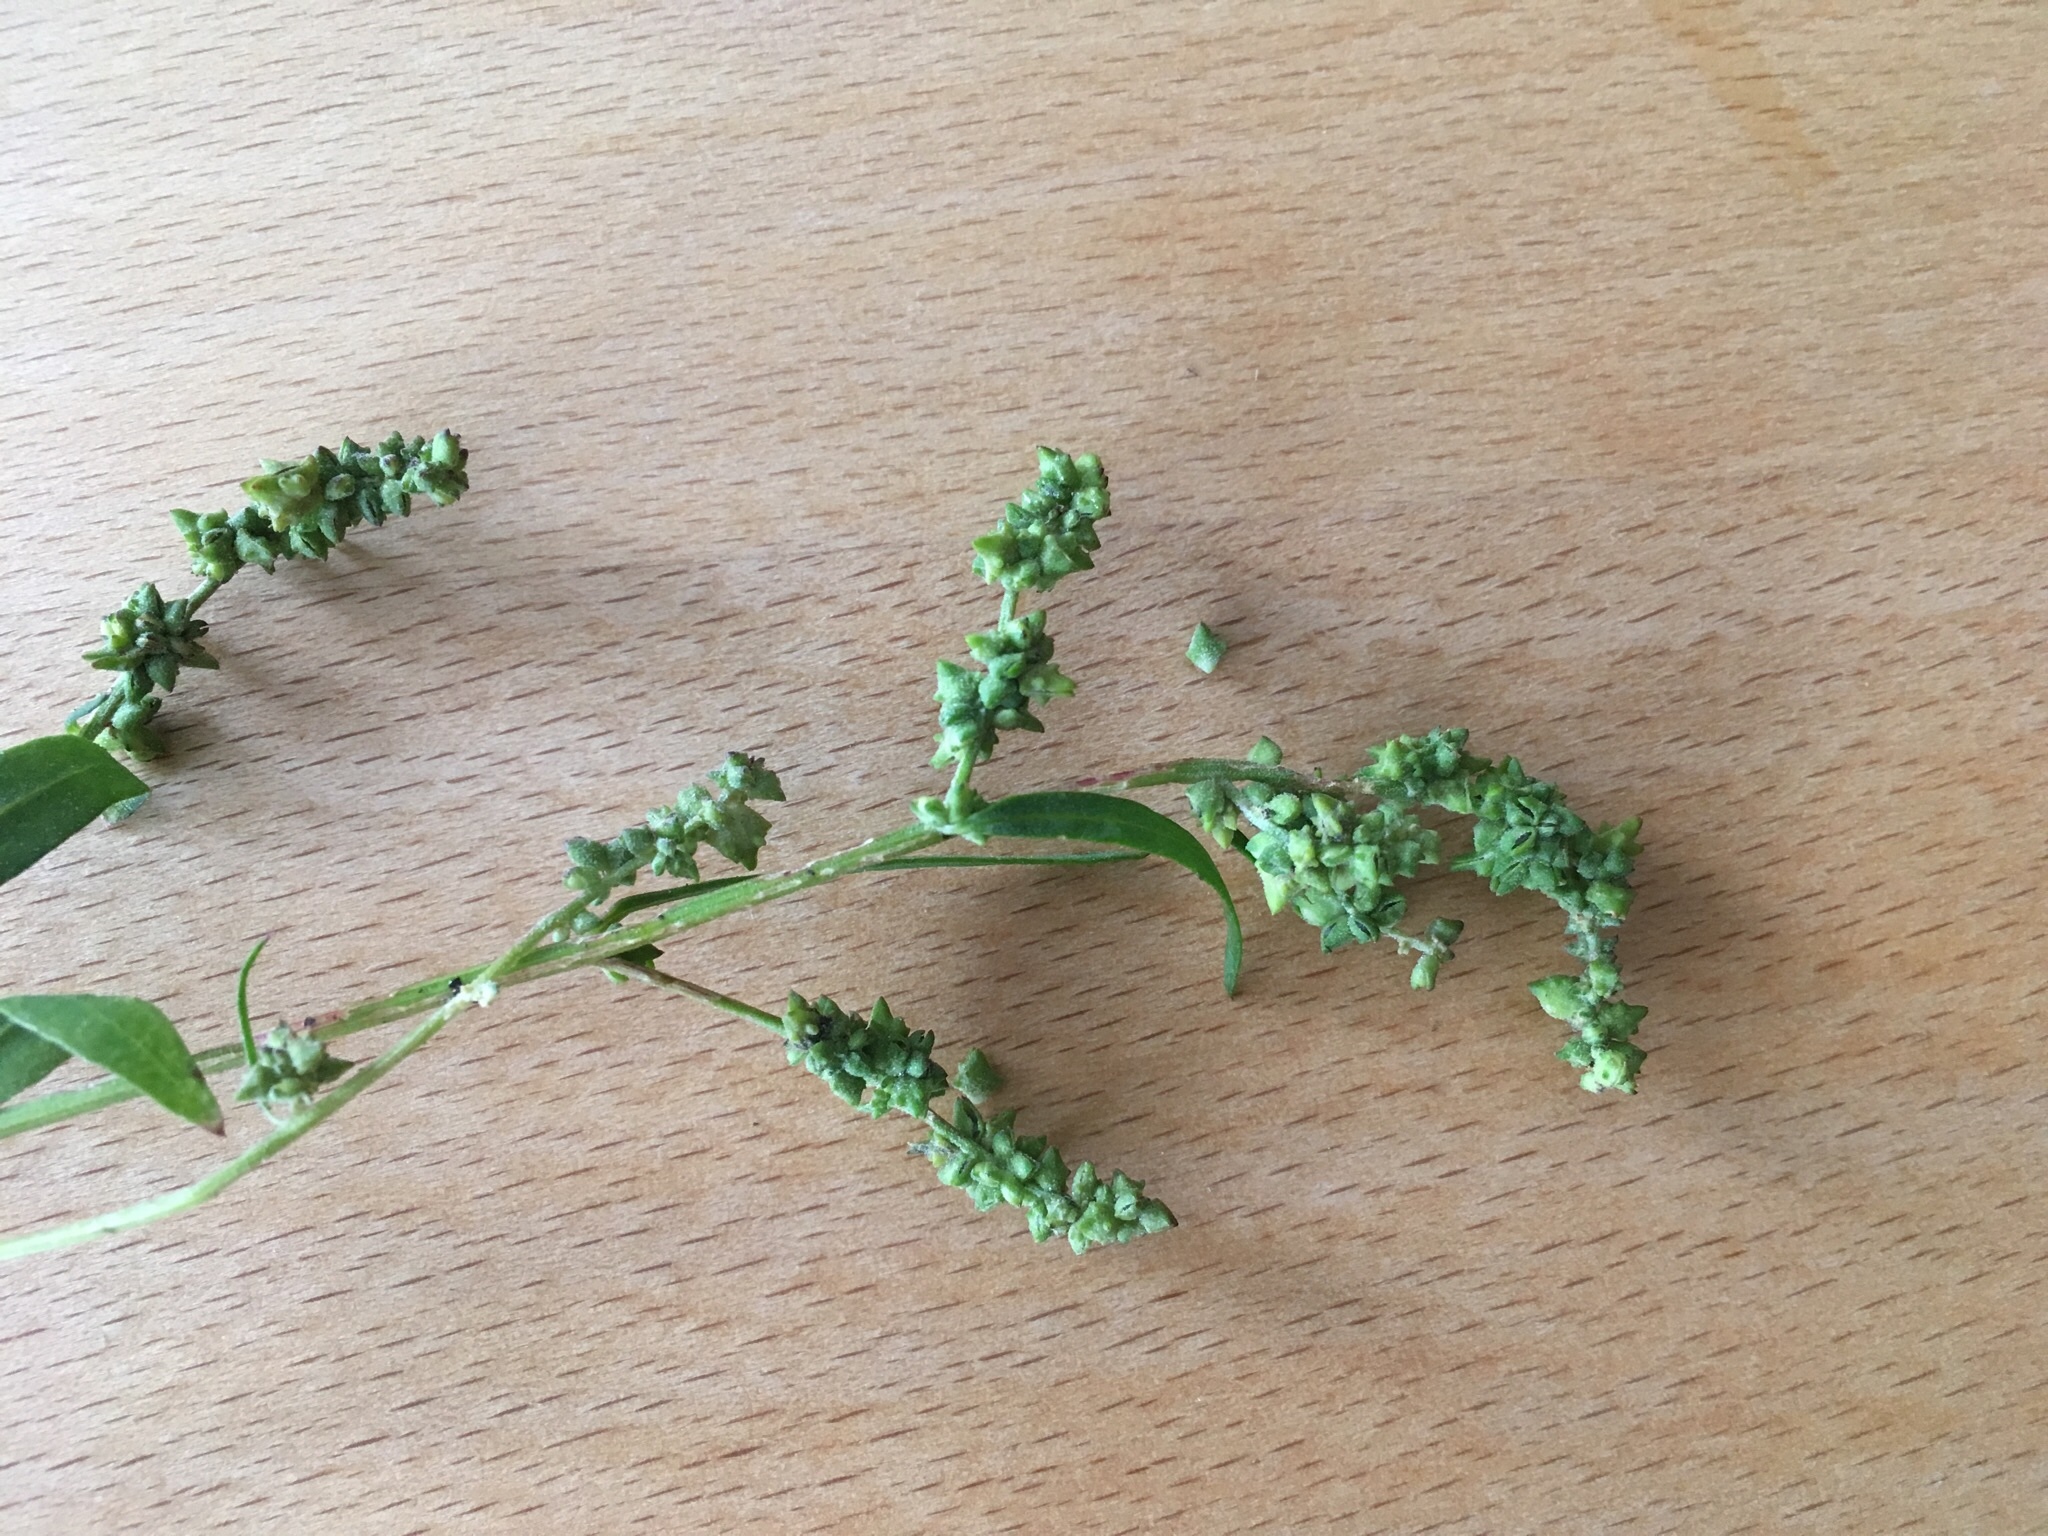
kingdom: Plantae
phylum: Tracheophyta
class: Magnoliopsida
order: Caryophyllales
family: Amaranthaceae
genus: Atriplex
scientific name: Atriplex patula
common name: Common orache
